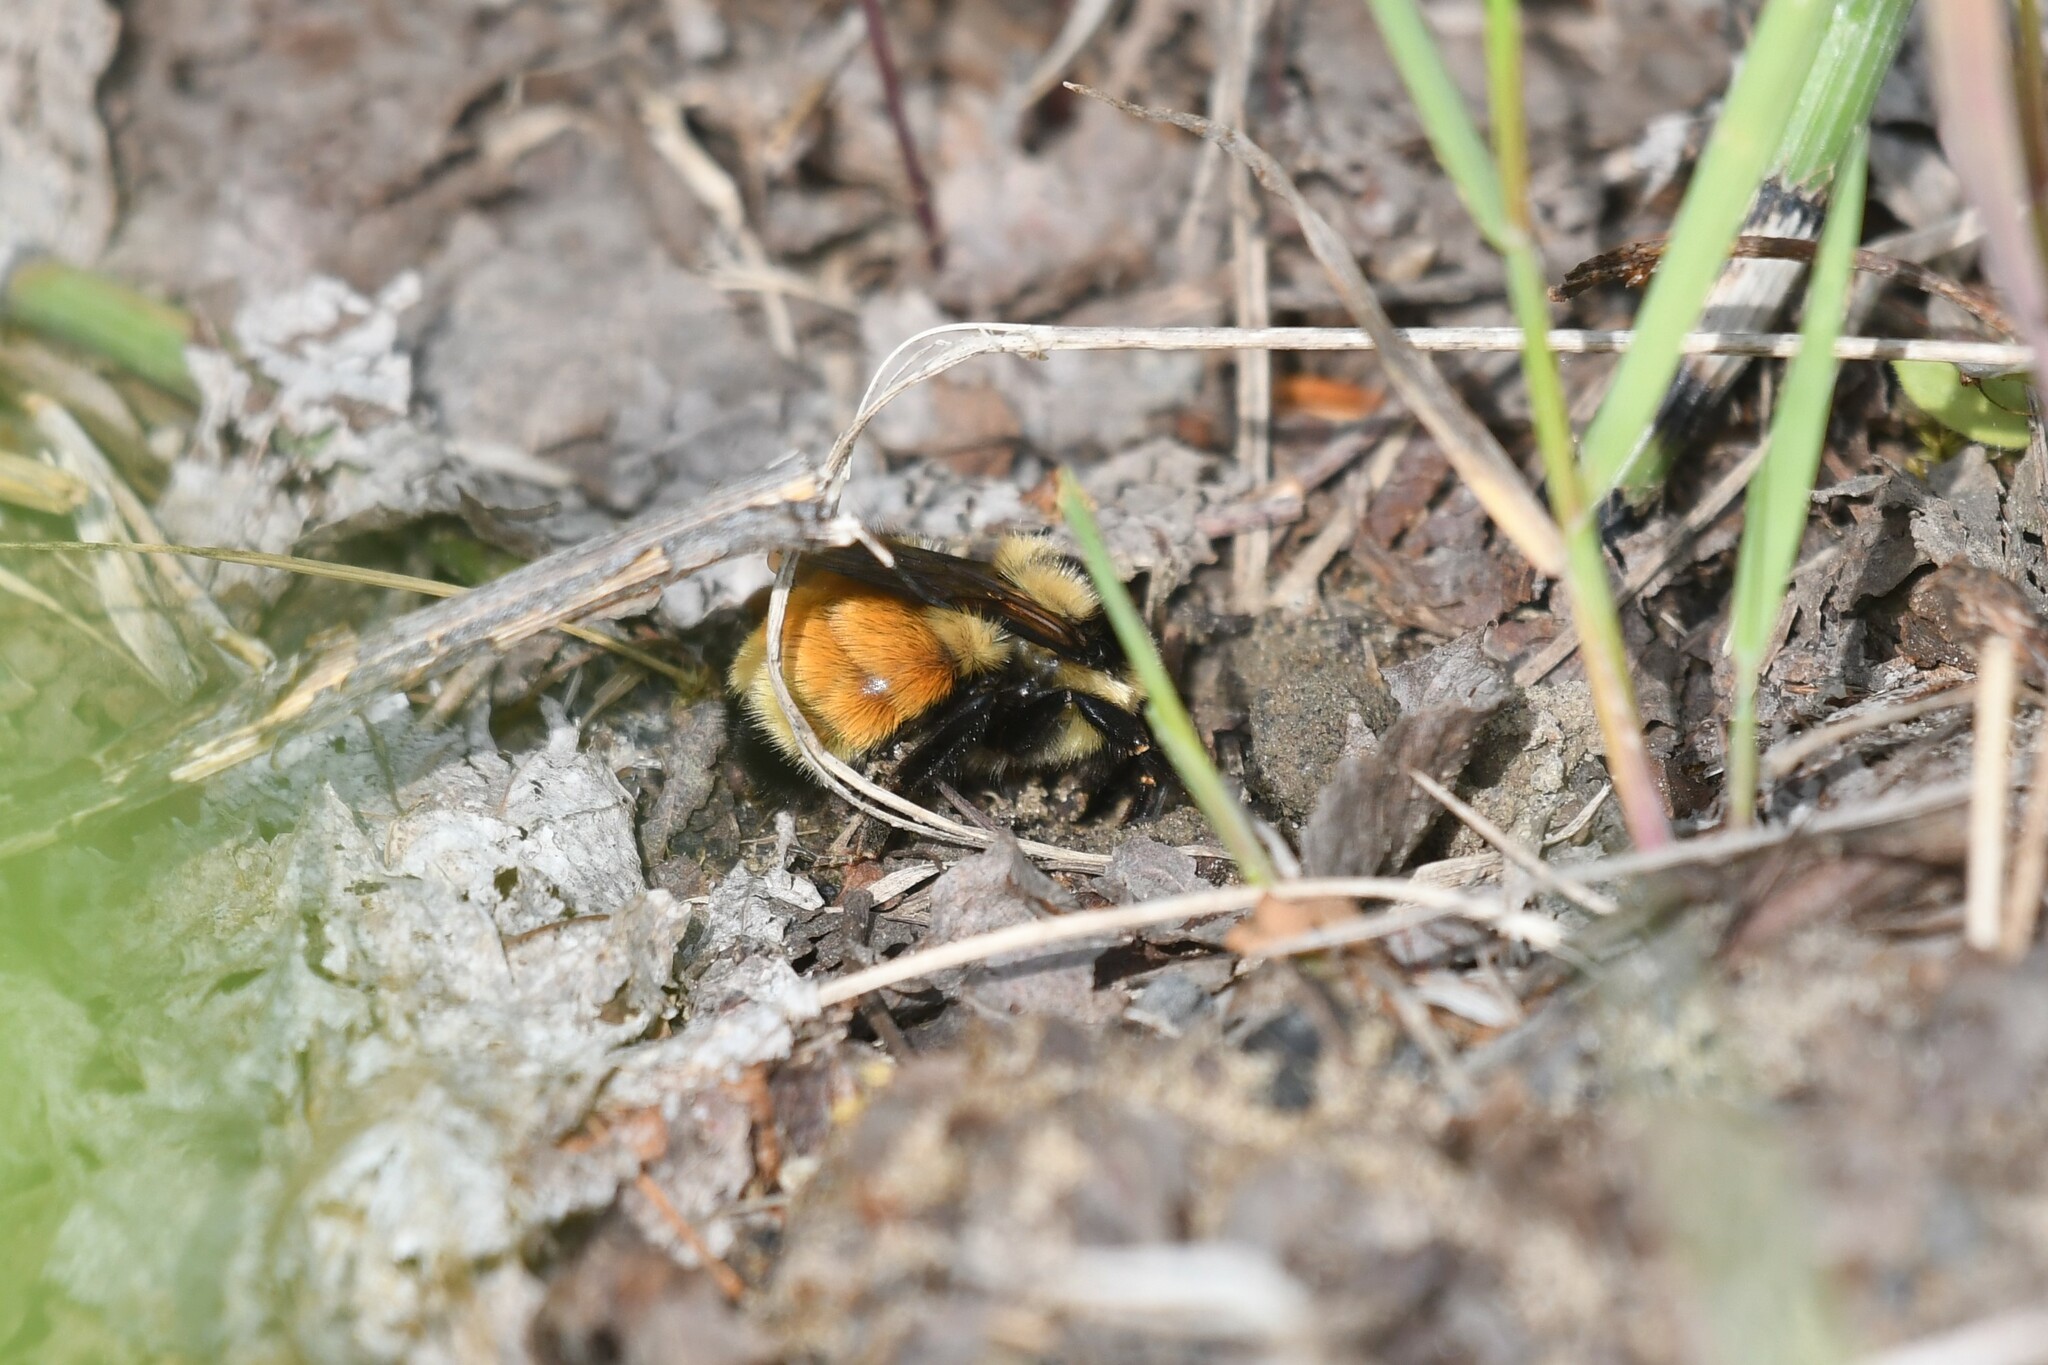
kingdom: Animalia
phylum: Arthropoda
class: Insecta
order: Hymenoptera
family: Apidae
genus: Bombus
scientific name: Bombus ternarius
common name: Tri-colored bumble bee
